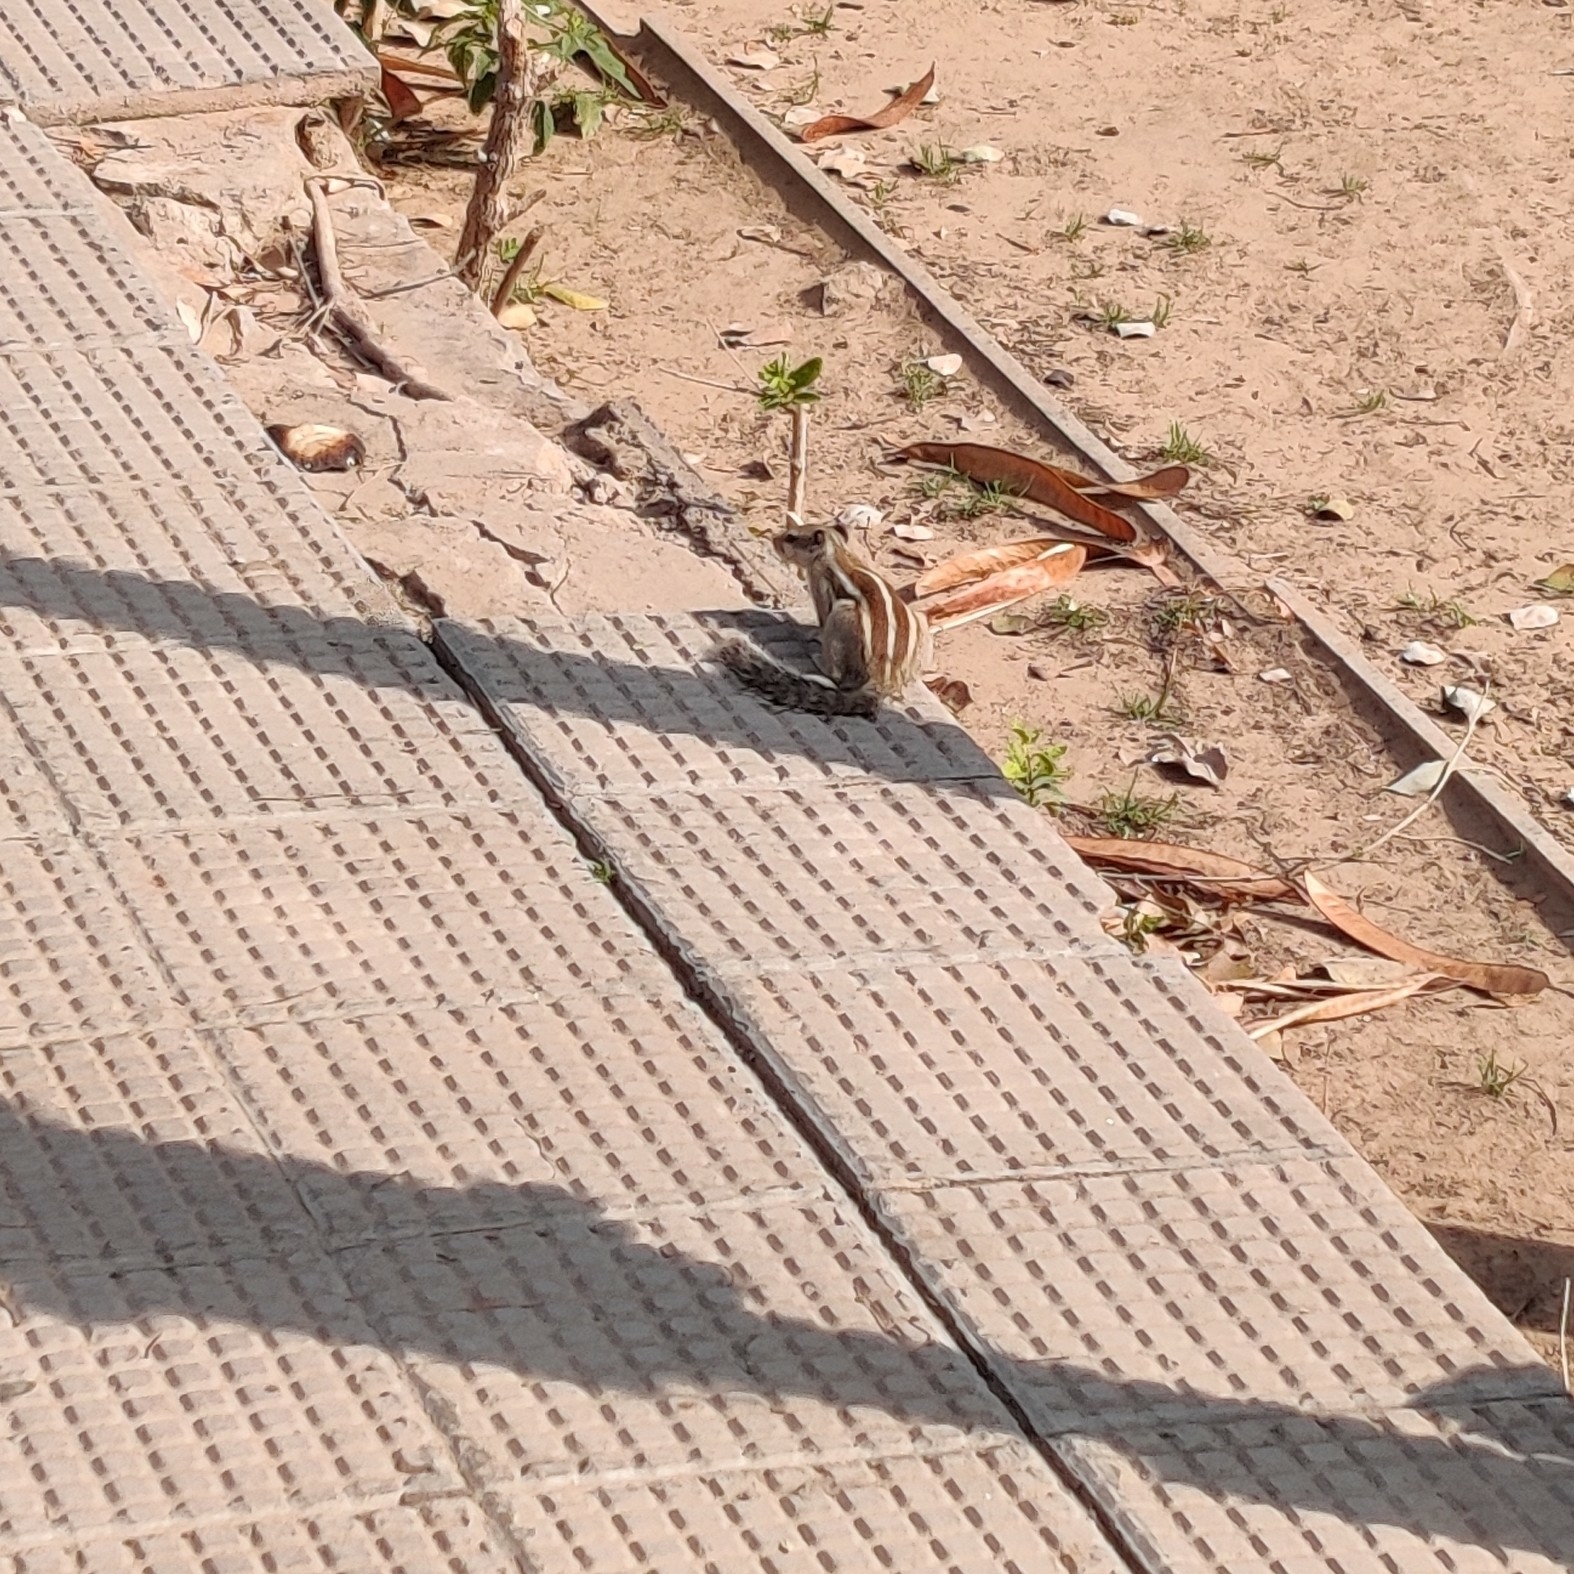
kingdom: Animalia
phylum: Chordata
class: Mammalia
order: Rodentia
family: Sciuridae
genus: Funambulus
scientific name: Funambulus pennantii
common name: Northern palm squirrel
